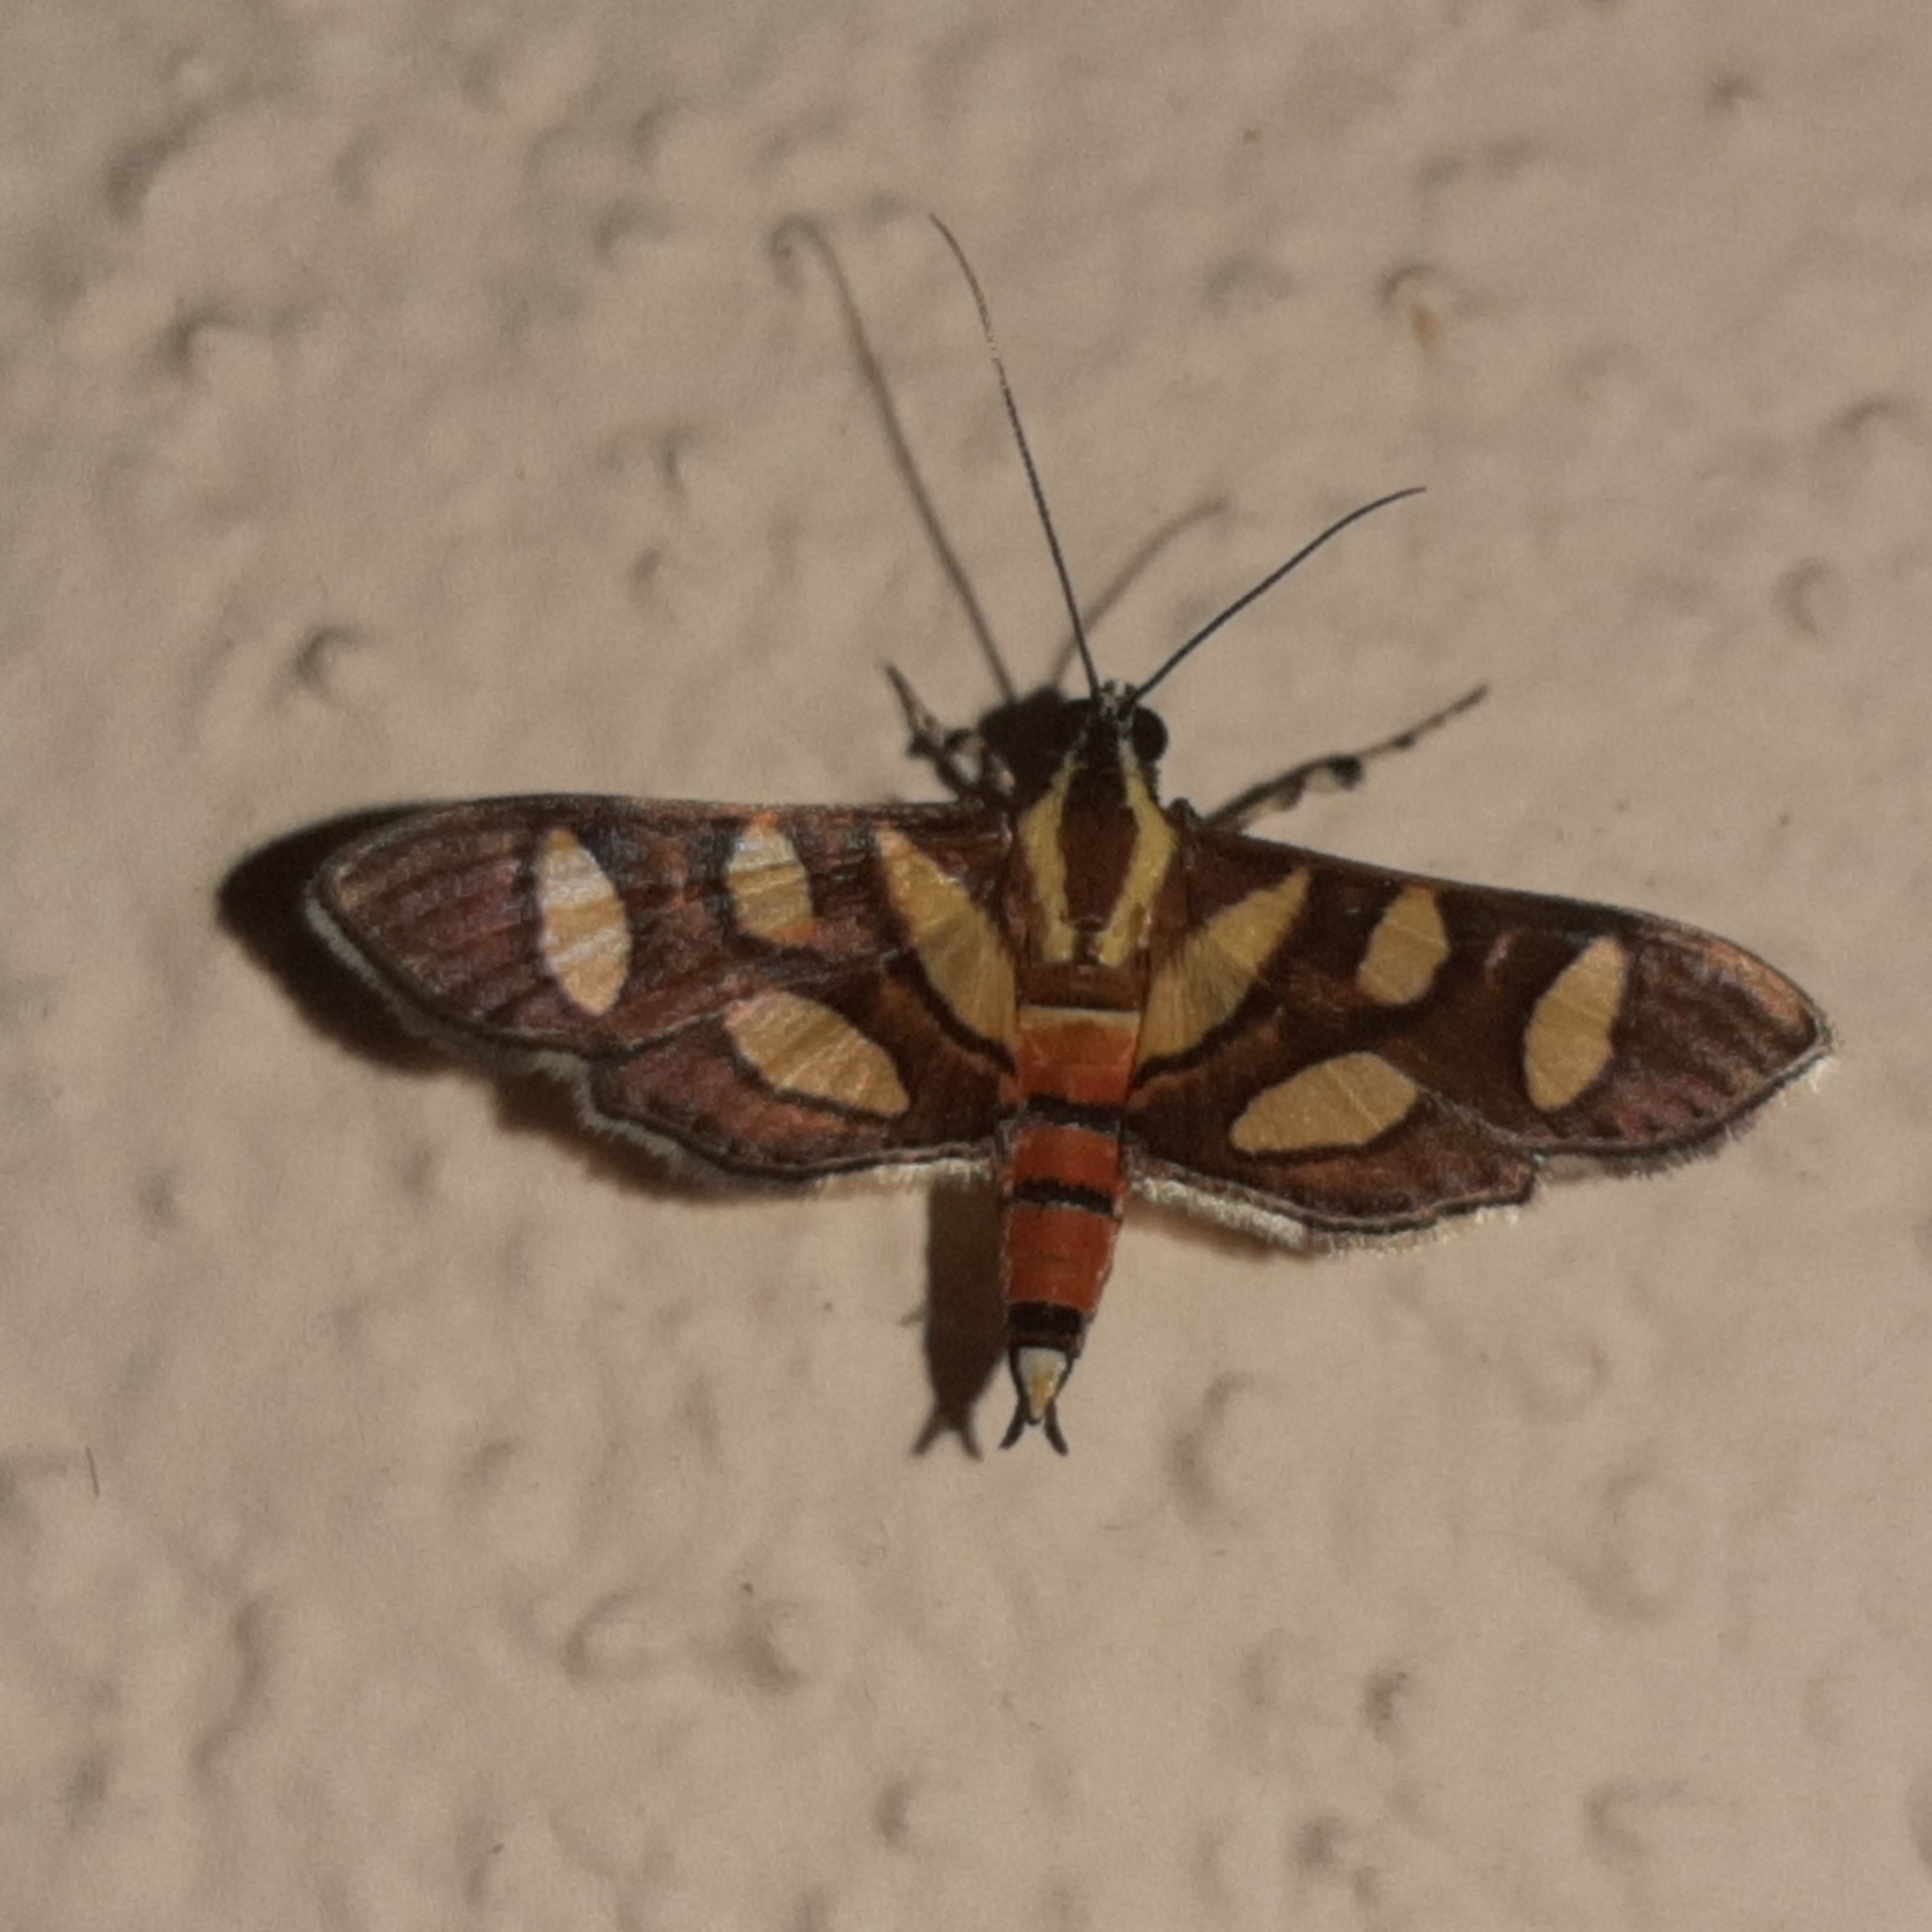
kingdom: Animalia
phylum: Arthropoda
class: Insecta
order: Lepidoptera
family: Crambidae
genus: Syngamia
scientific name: Syngamia florella
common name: Orange-spotted flower moth
